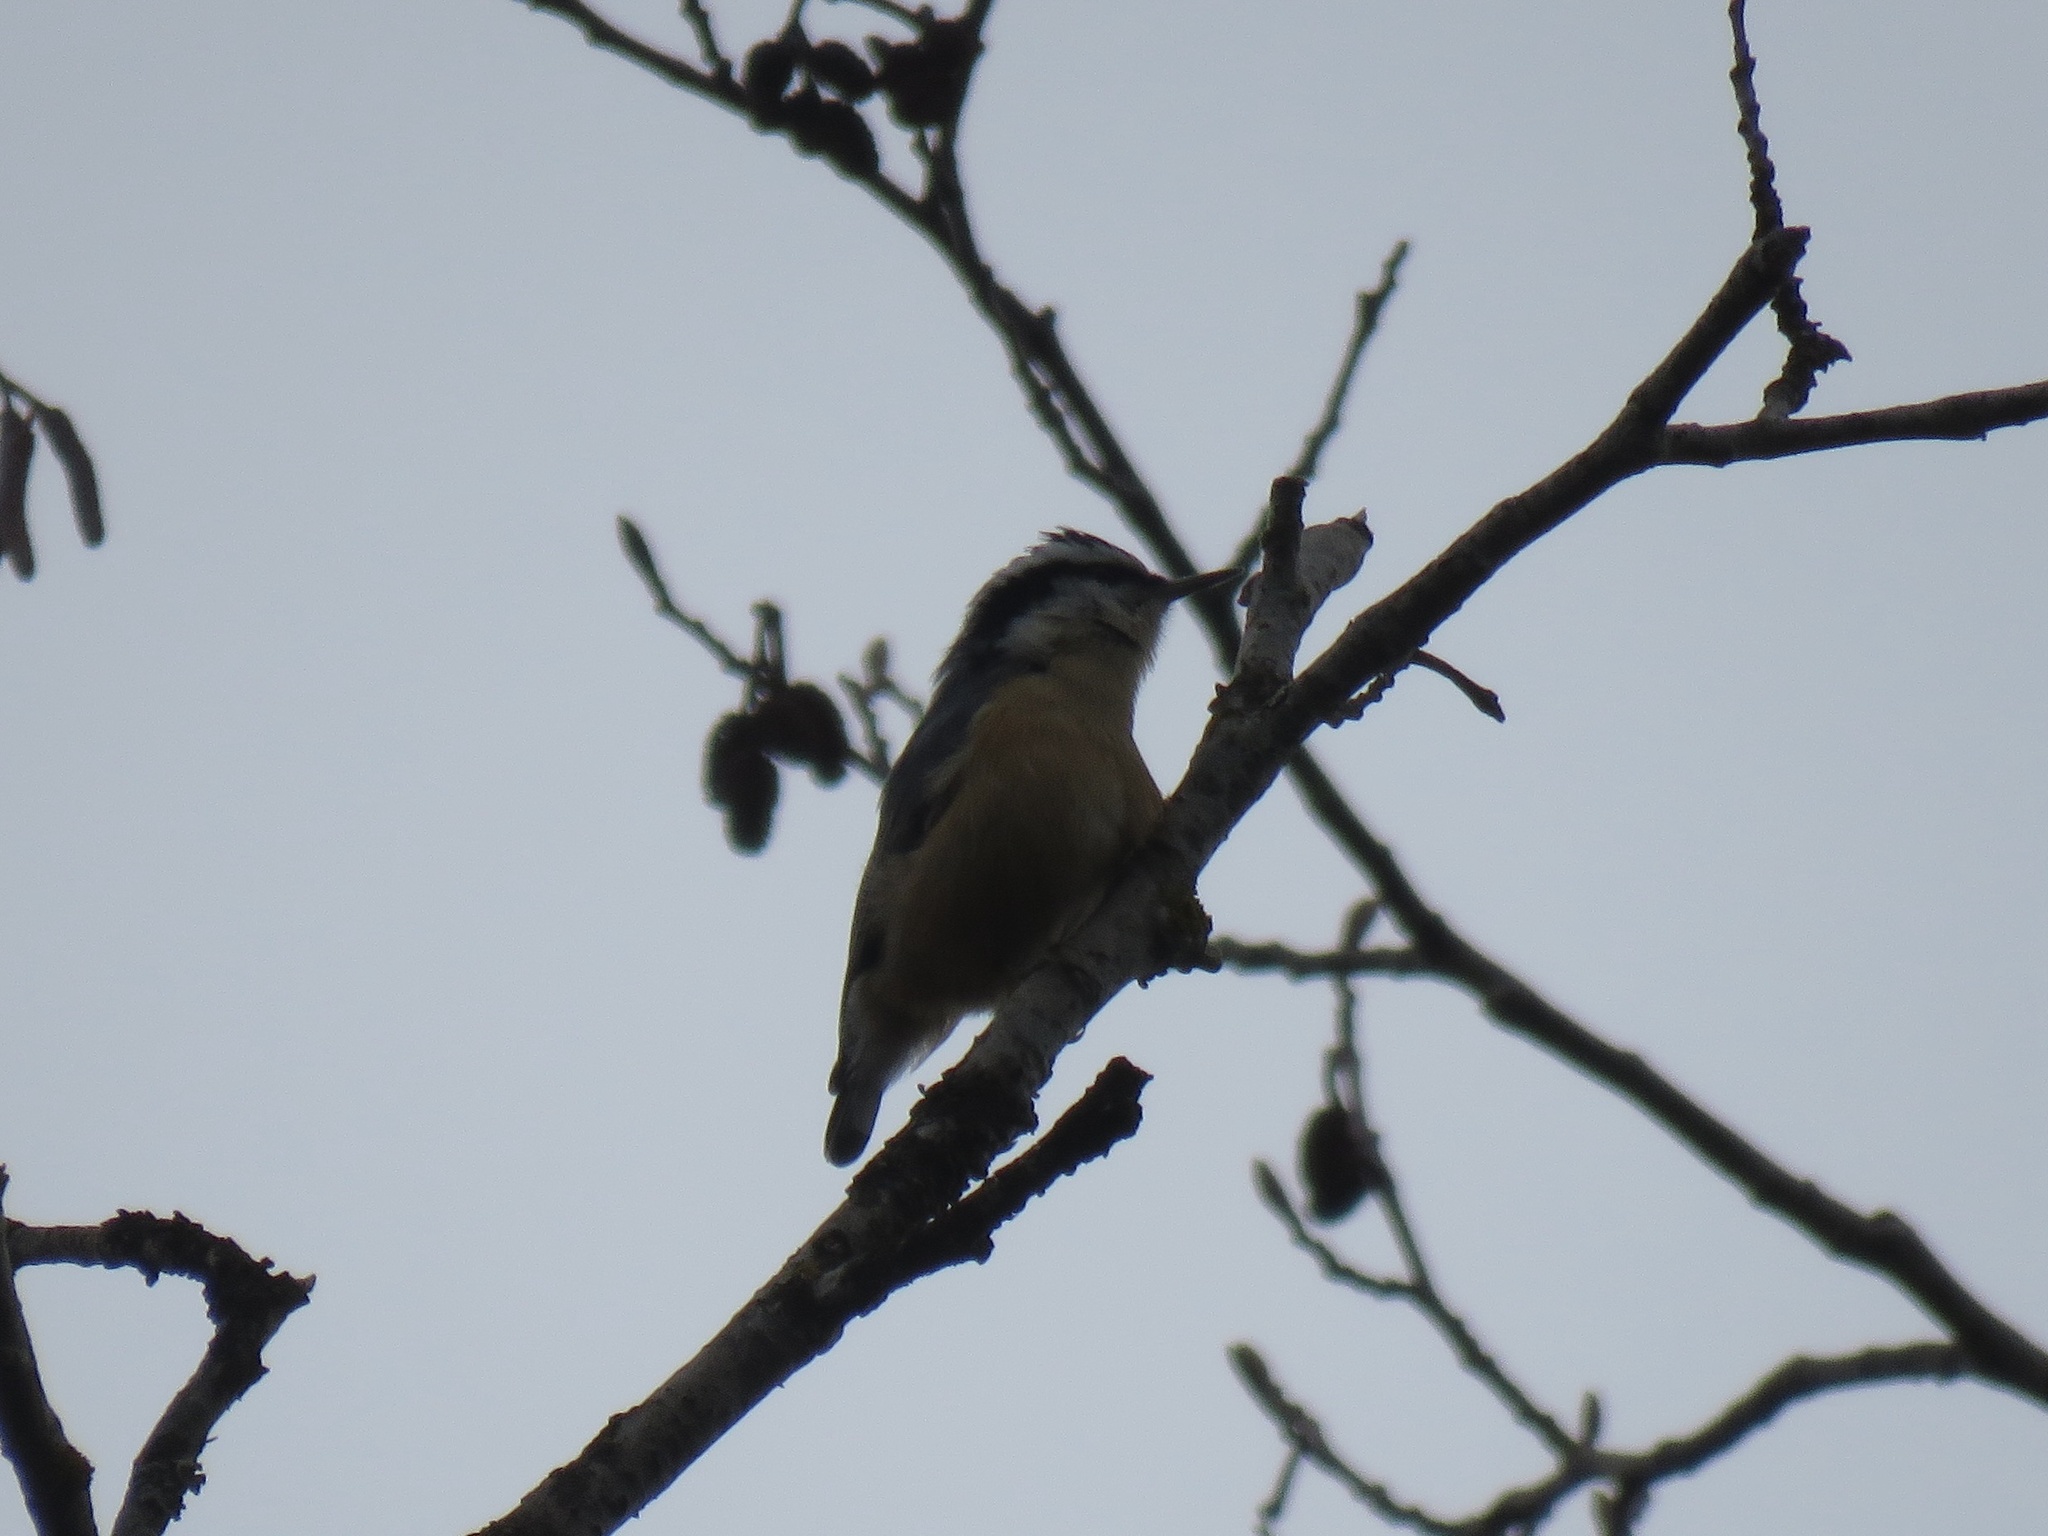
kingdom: Animalia
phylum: Chordata
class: Aves
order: Passeriformes
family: Sittidae
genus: Sitta
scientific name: Sitta canadensis
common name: Red-breasted nuthatch
